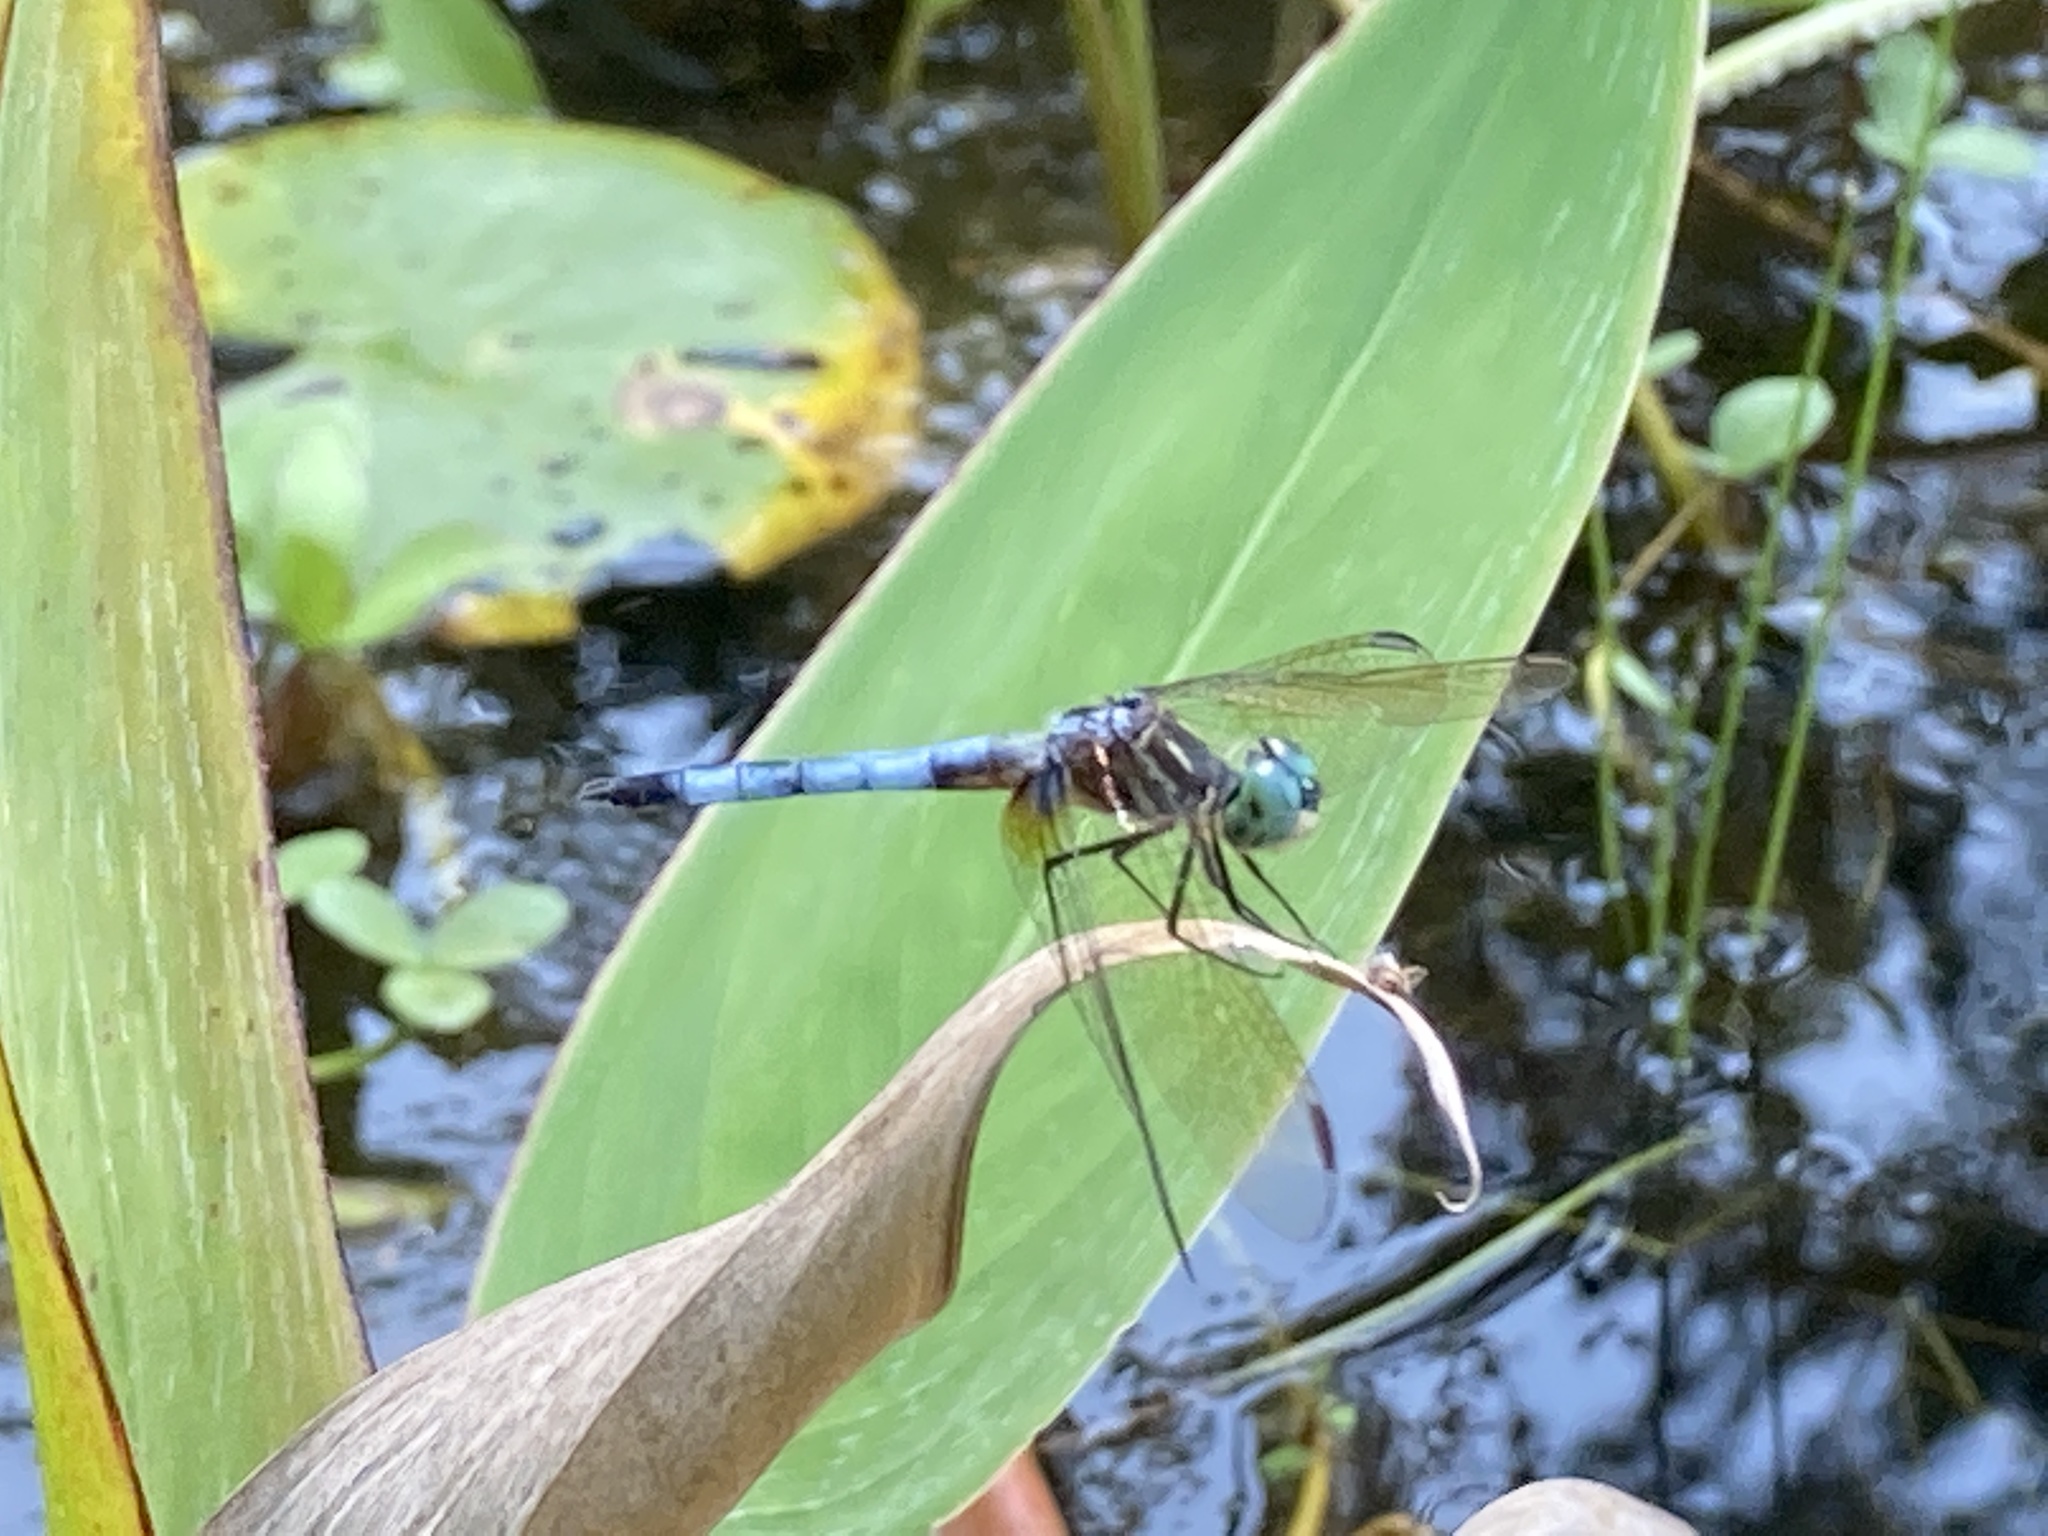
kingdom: Animalia
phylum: Arthropoda
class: Insecta
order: Odonata
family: Libellulidae
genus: Pachydiplax
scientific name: Pachydiplax longipennis
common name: Blue dasher
